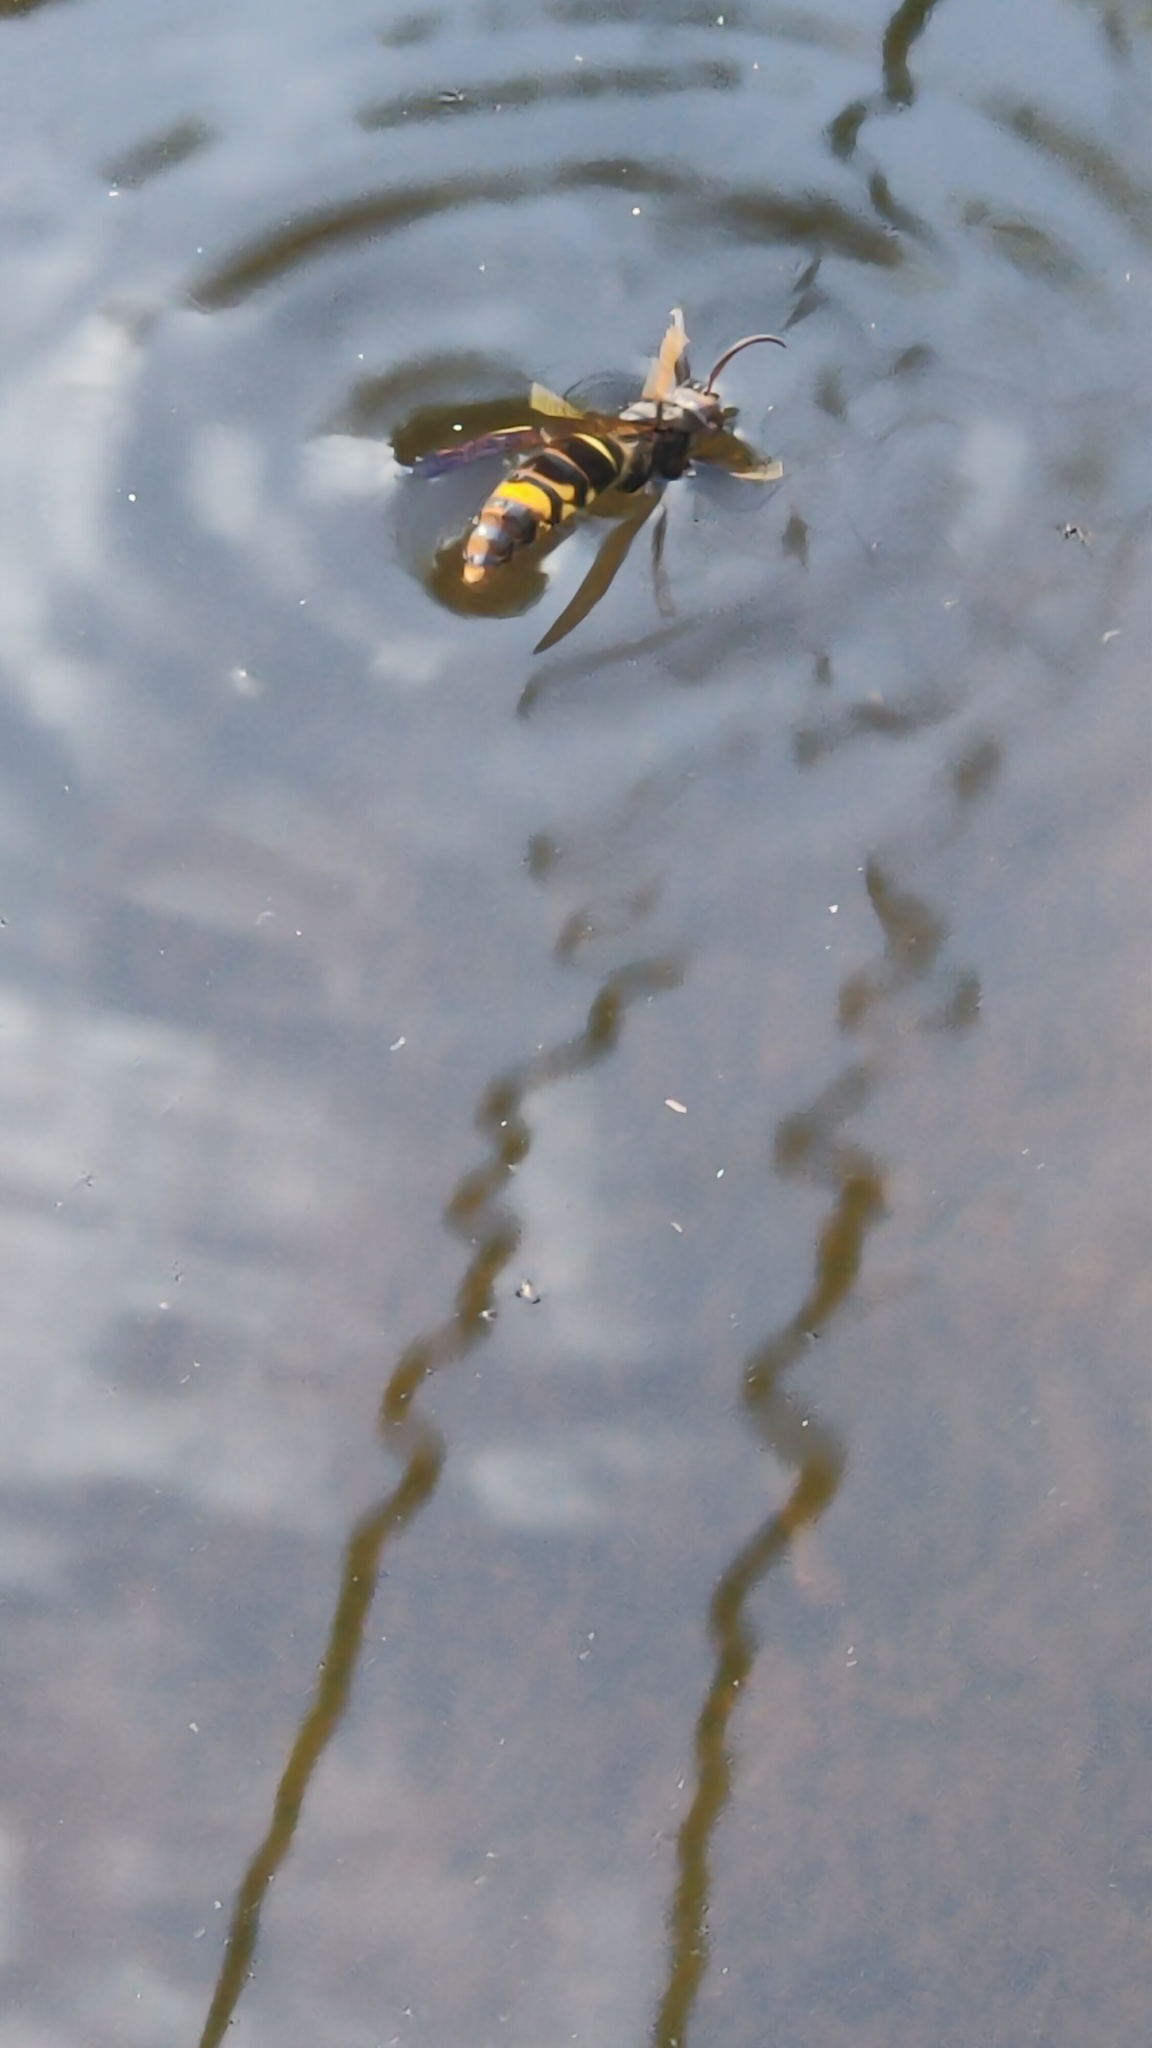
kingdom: Animalia
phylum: Arthropoda
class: Insecta
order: Hymenoptera
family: Vespidae
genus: Vespa
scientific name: Vespa velutina
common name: Asian hornet
